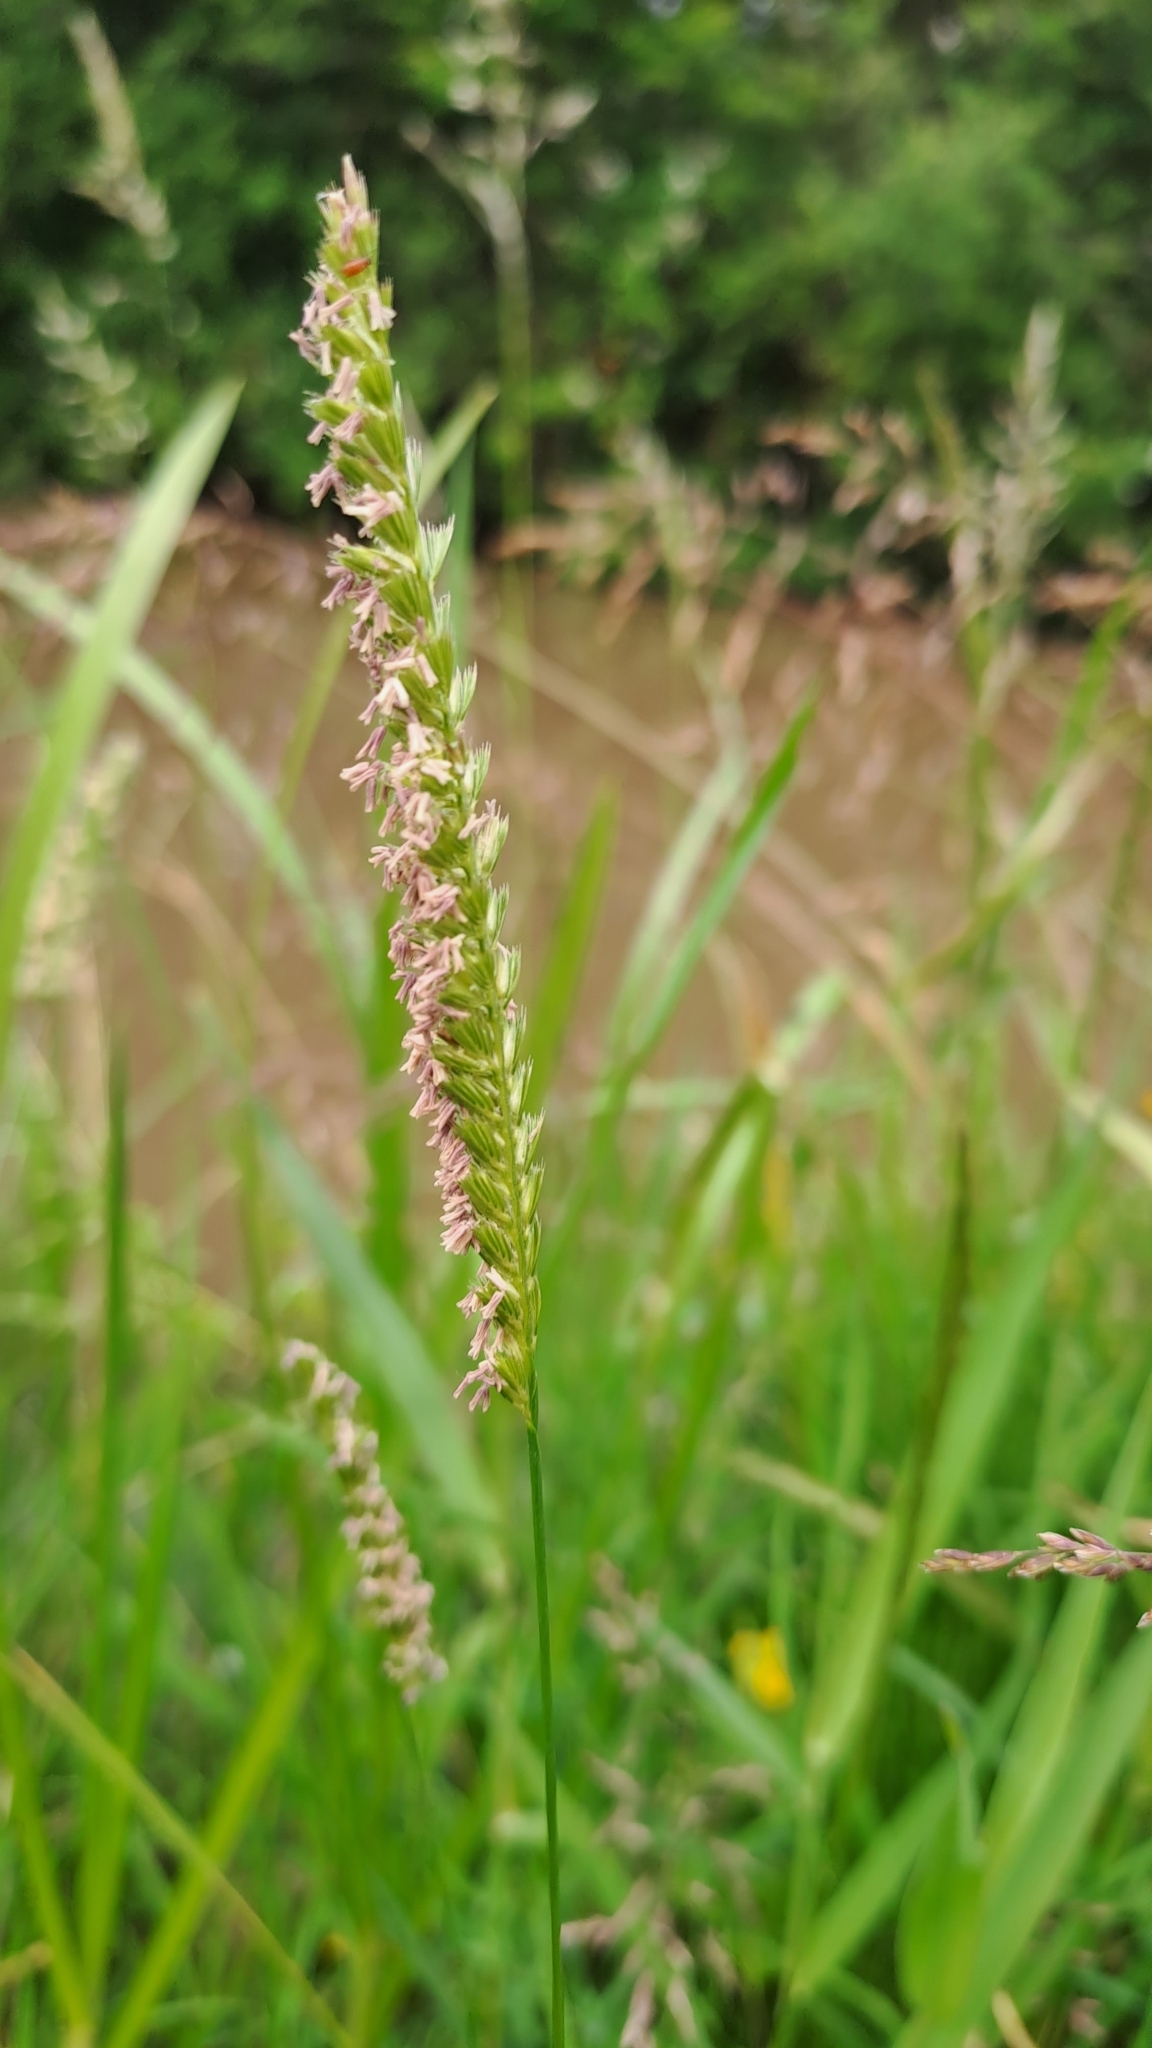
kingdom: Plantae
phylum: Tracheophyta
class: Liliopsida
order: Poales
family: Poaceae
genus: Cynosurus
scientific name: Cynosurus cristatus
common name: Crested dog's-tail
